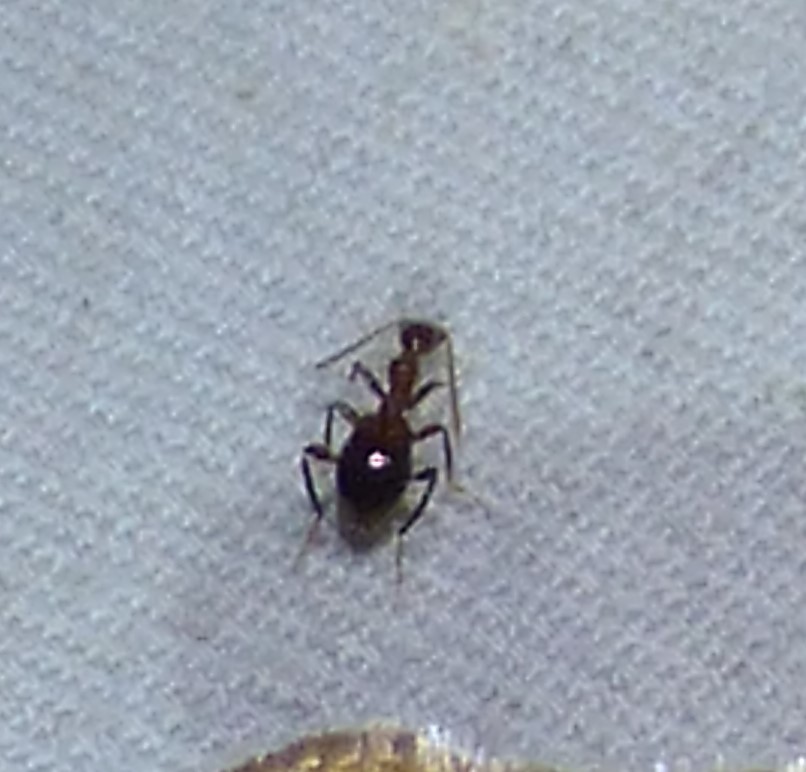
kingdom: Animalia
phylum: Arthropoda
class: Insecta
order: Coleoptera
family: Anthicidae
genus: Acanthinus
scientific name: Acanthinus
